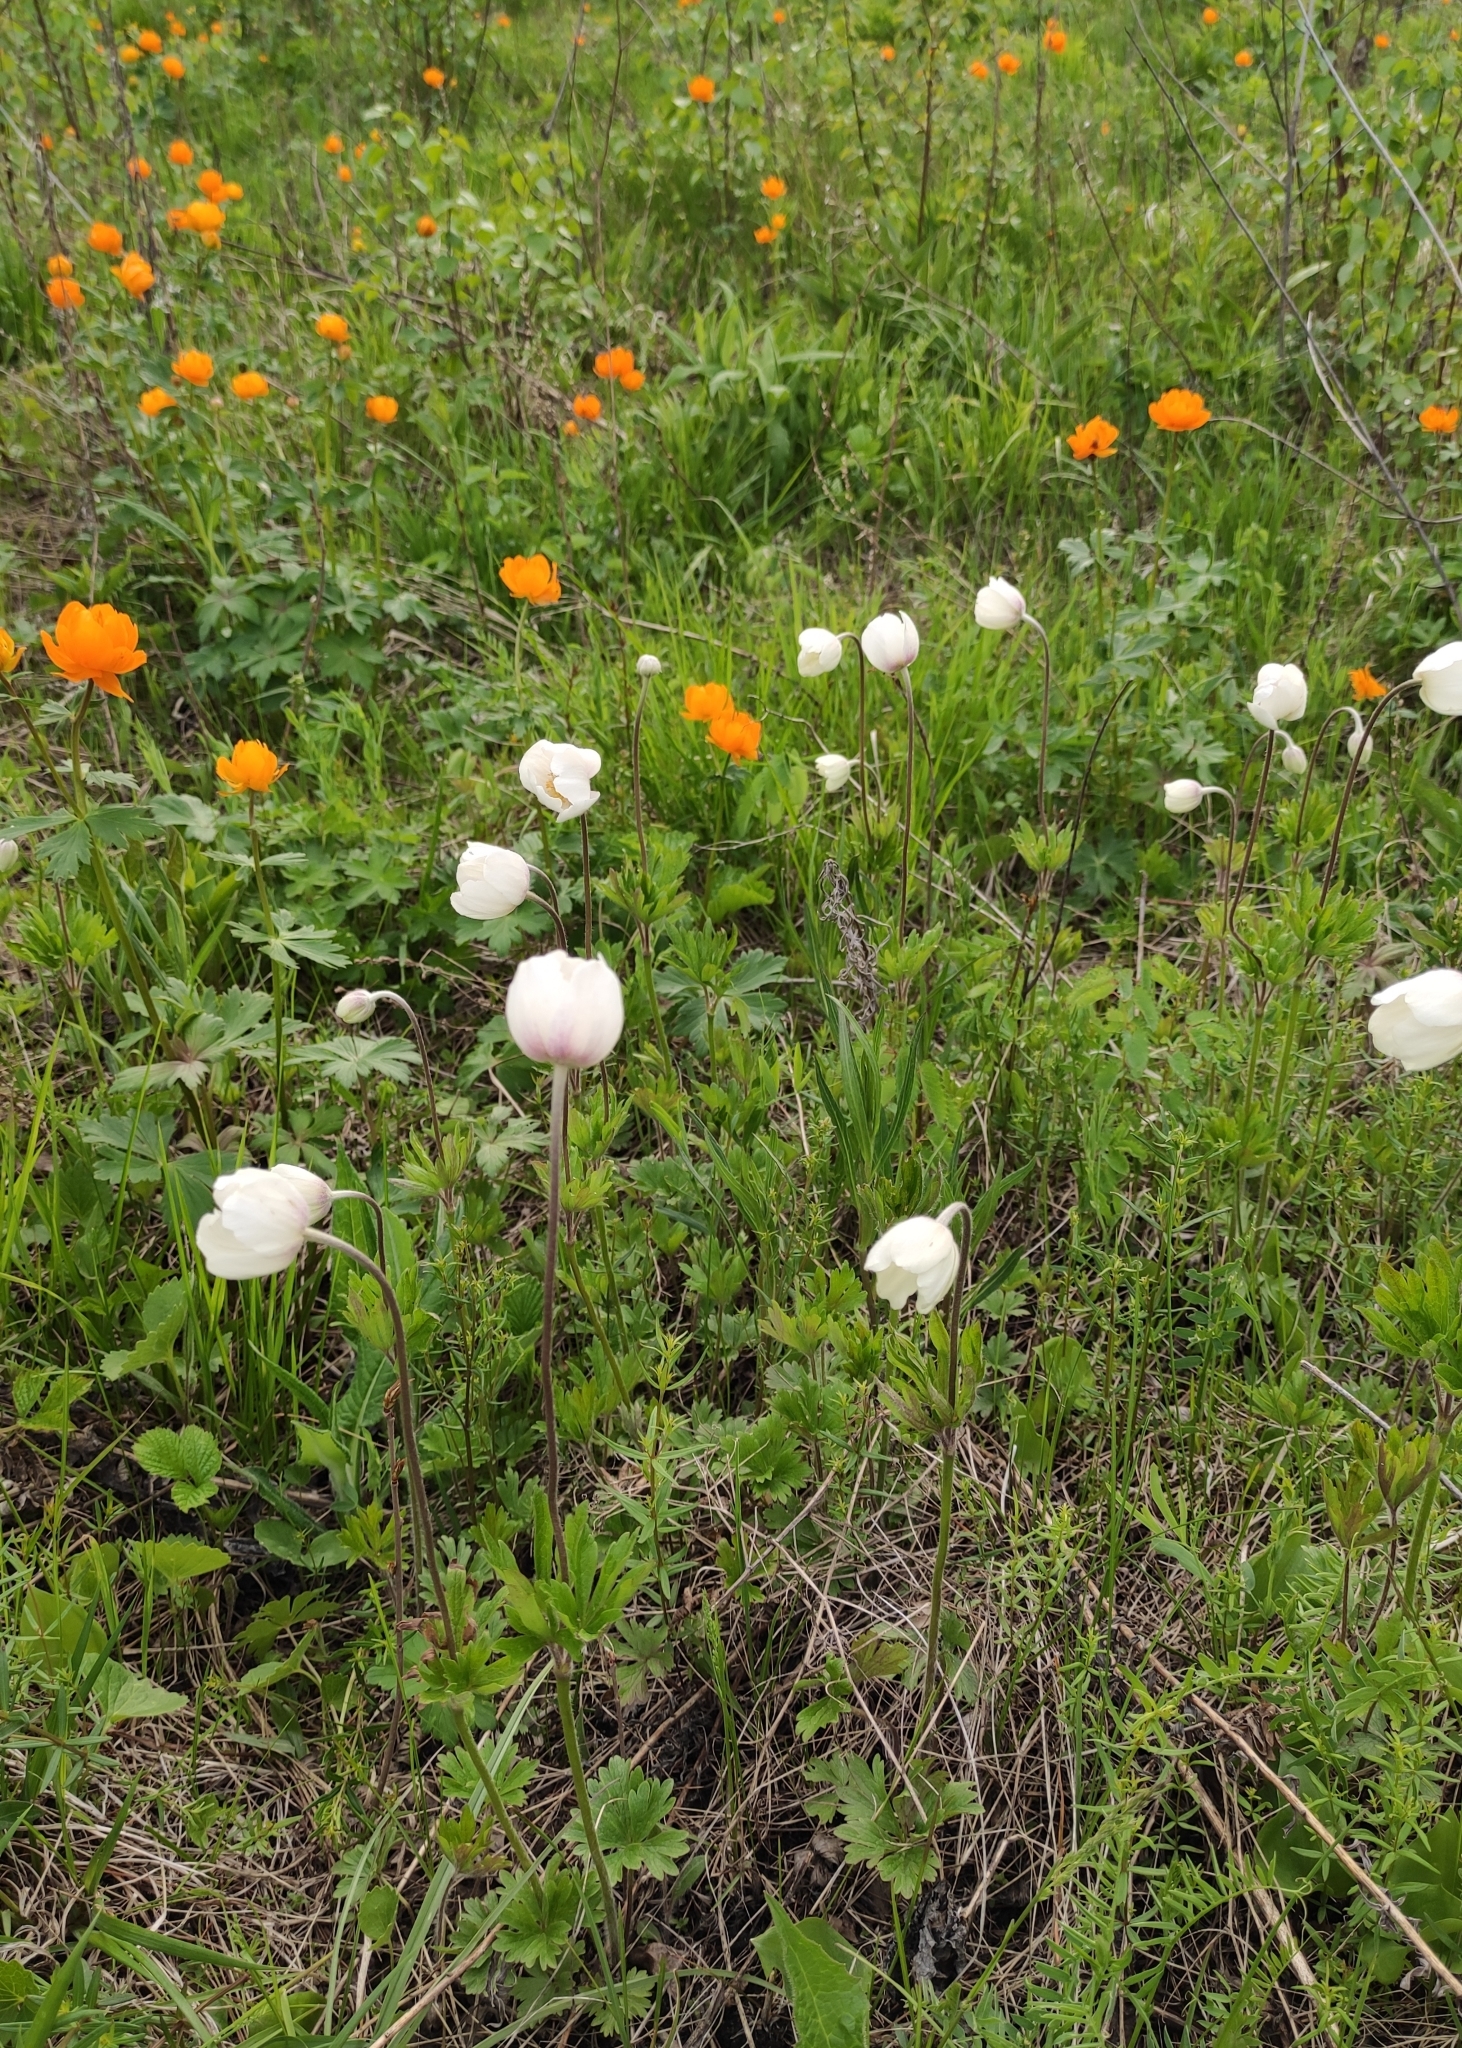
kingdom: Plantae
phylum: Tracheophyta
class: Magnoliopsida
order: Ranunculales
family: Ranunculaceae
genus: Anemone
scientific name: Anemone sylvestris
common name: Snowdrop anemone
